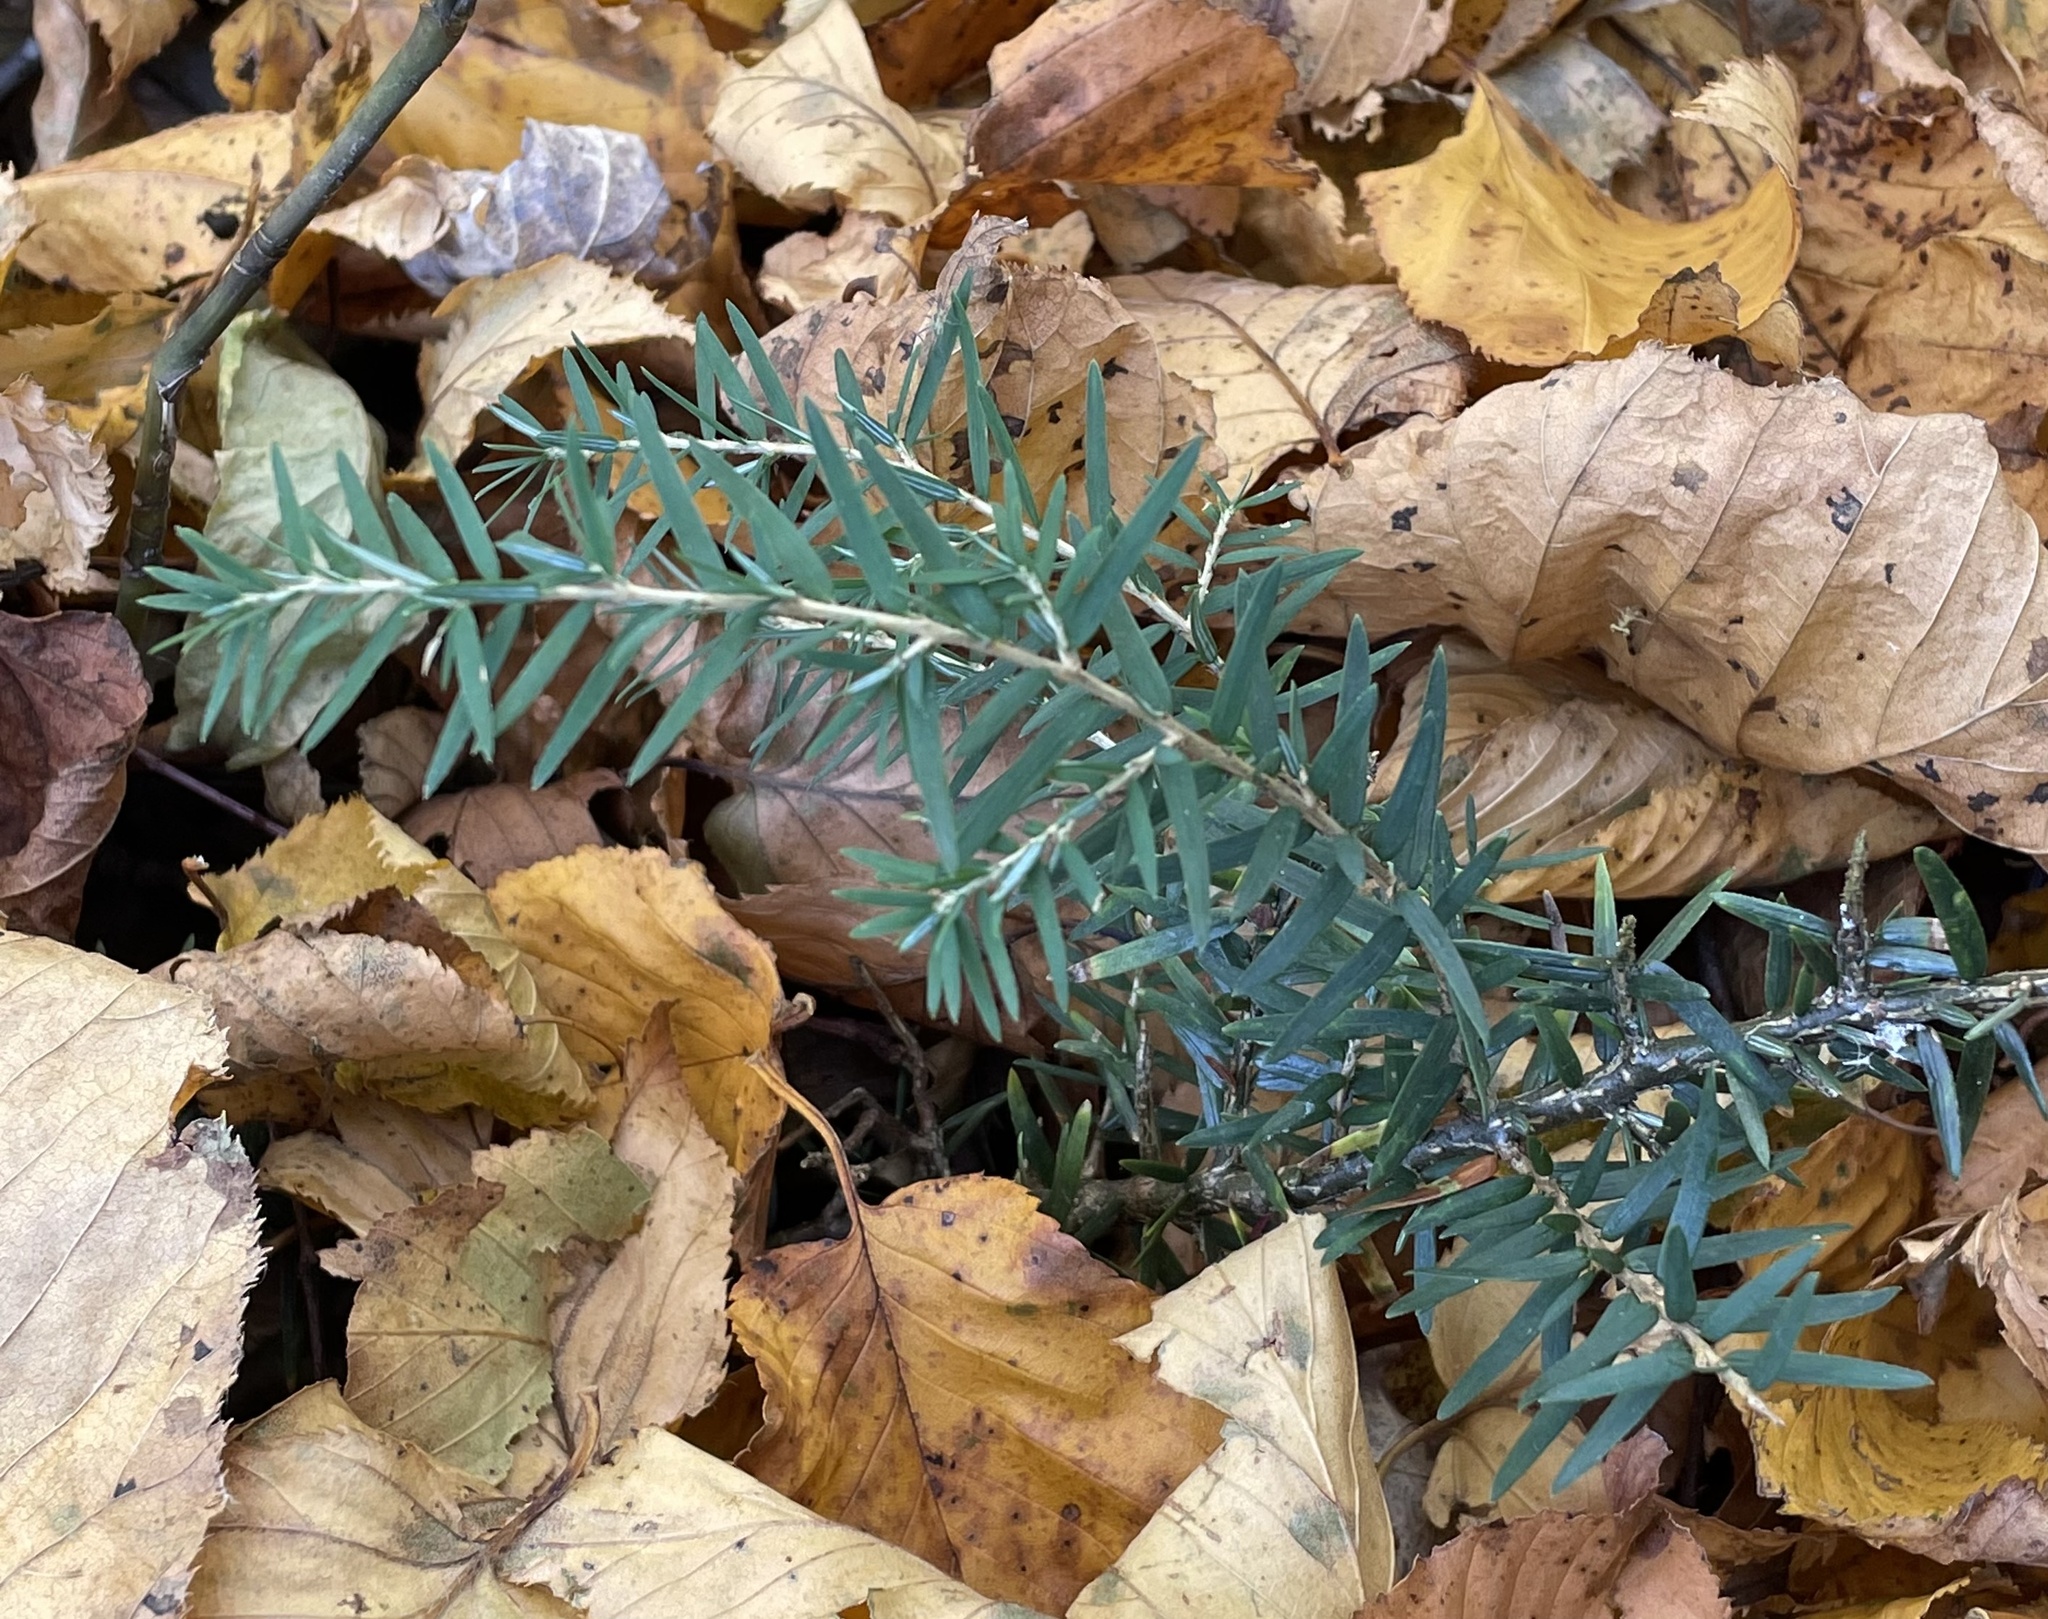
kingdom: Plantae
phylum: Tracheophyta
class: Pinopsida
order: Pinales
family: Pinaceae
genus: Tsuga
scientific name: Tsuga canadensis
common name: Eastern hemlock
